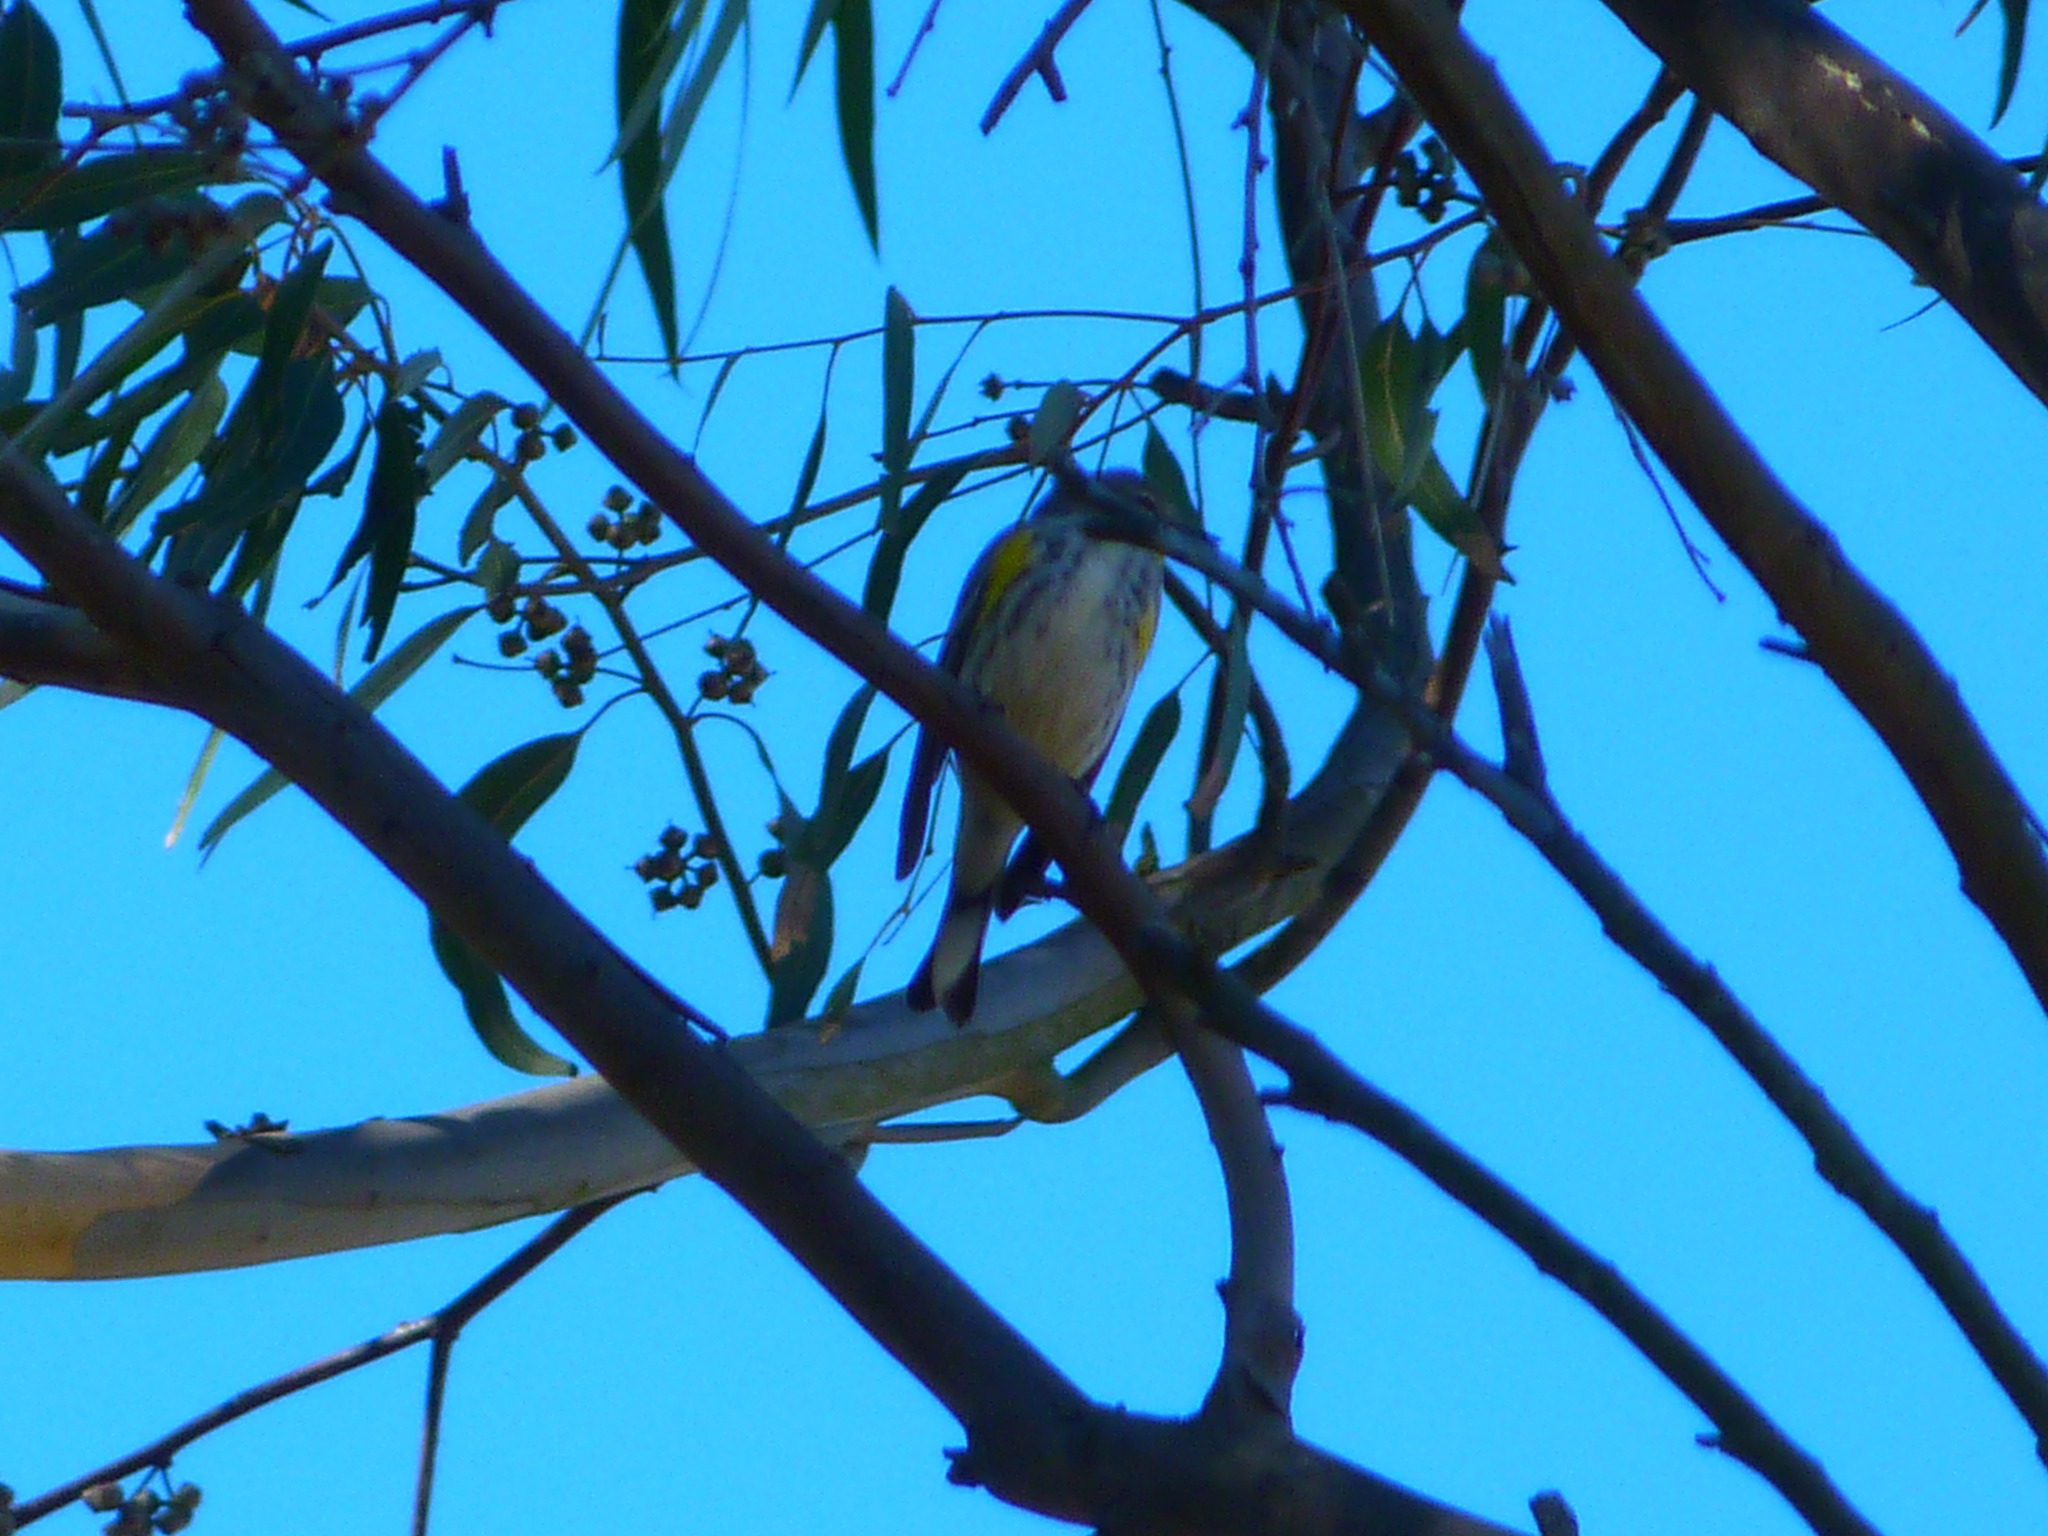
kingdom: Animalia
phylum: Chordata
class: Aves
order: Passeriformes
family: Parulidae
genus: Setophaga
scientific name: Setophaga coronata
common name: Myrtle warbler
